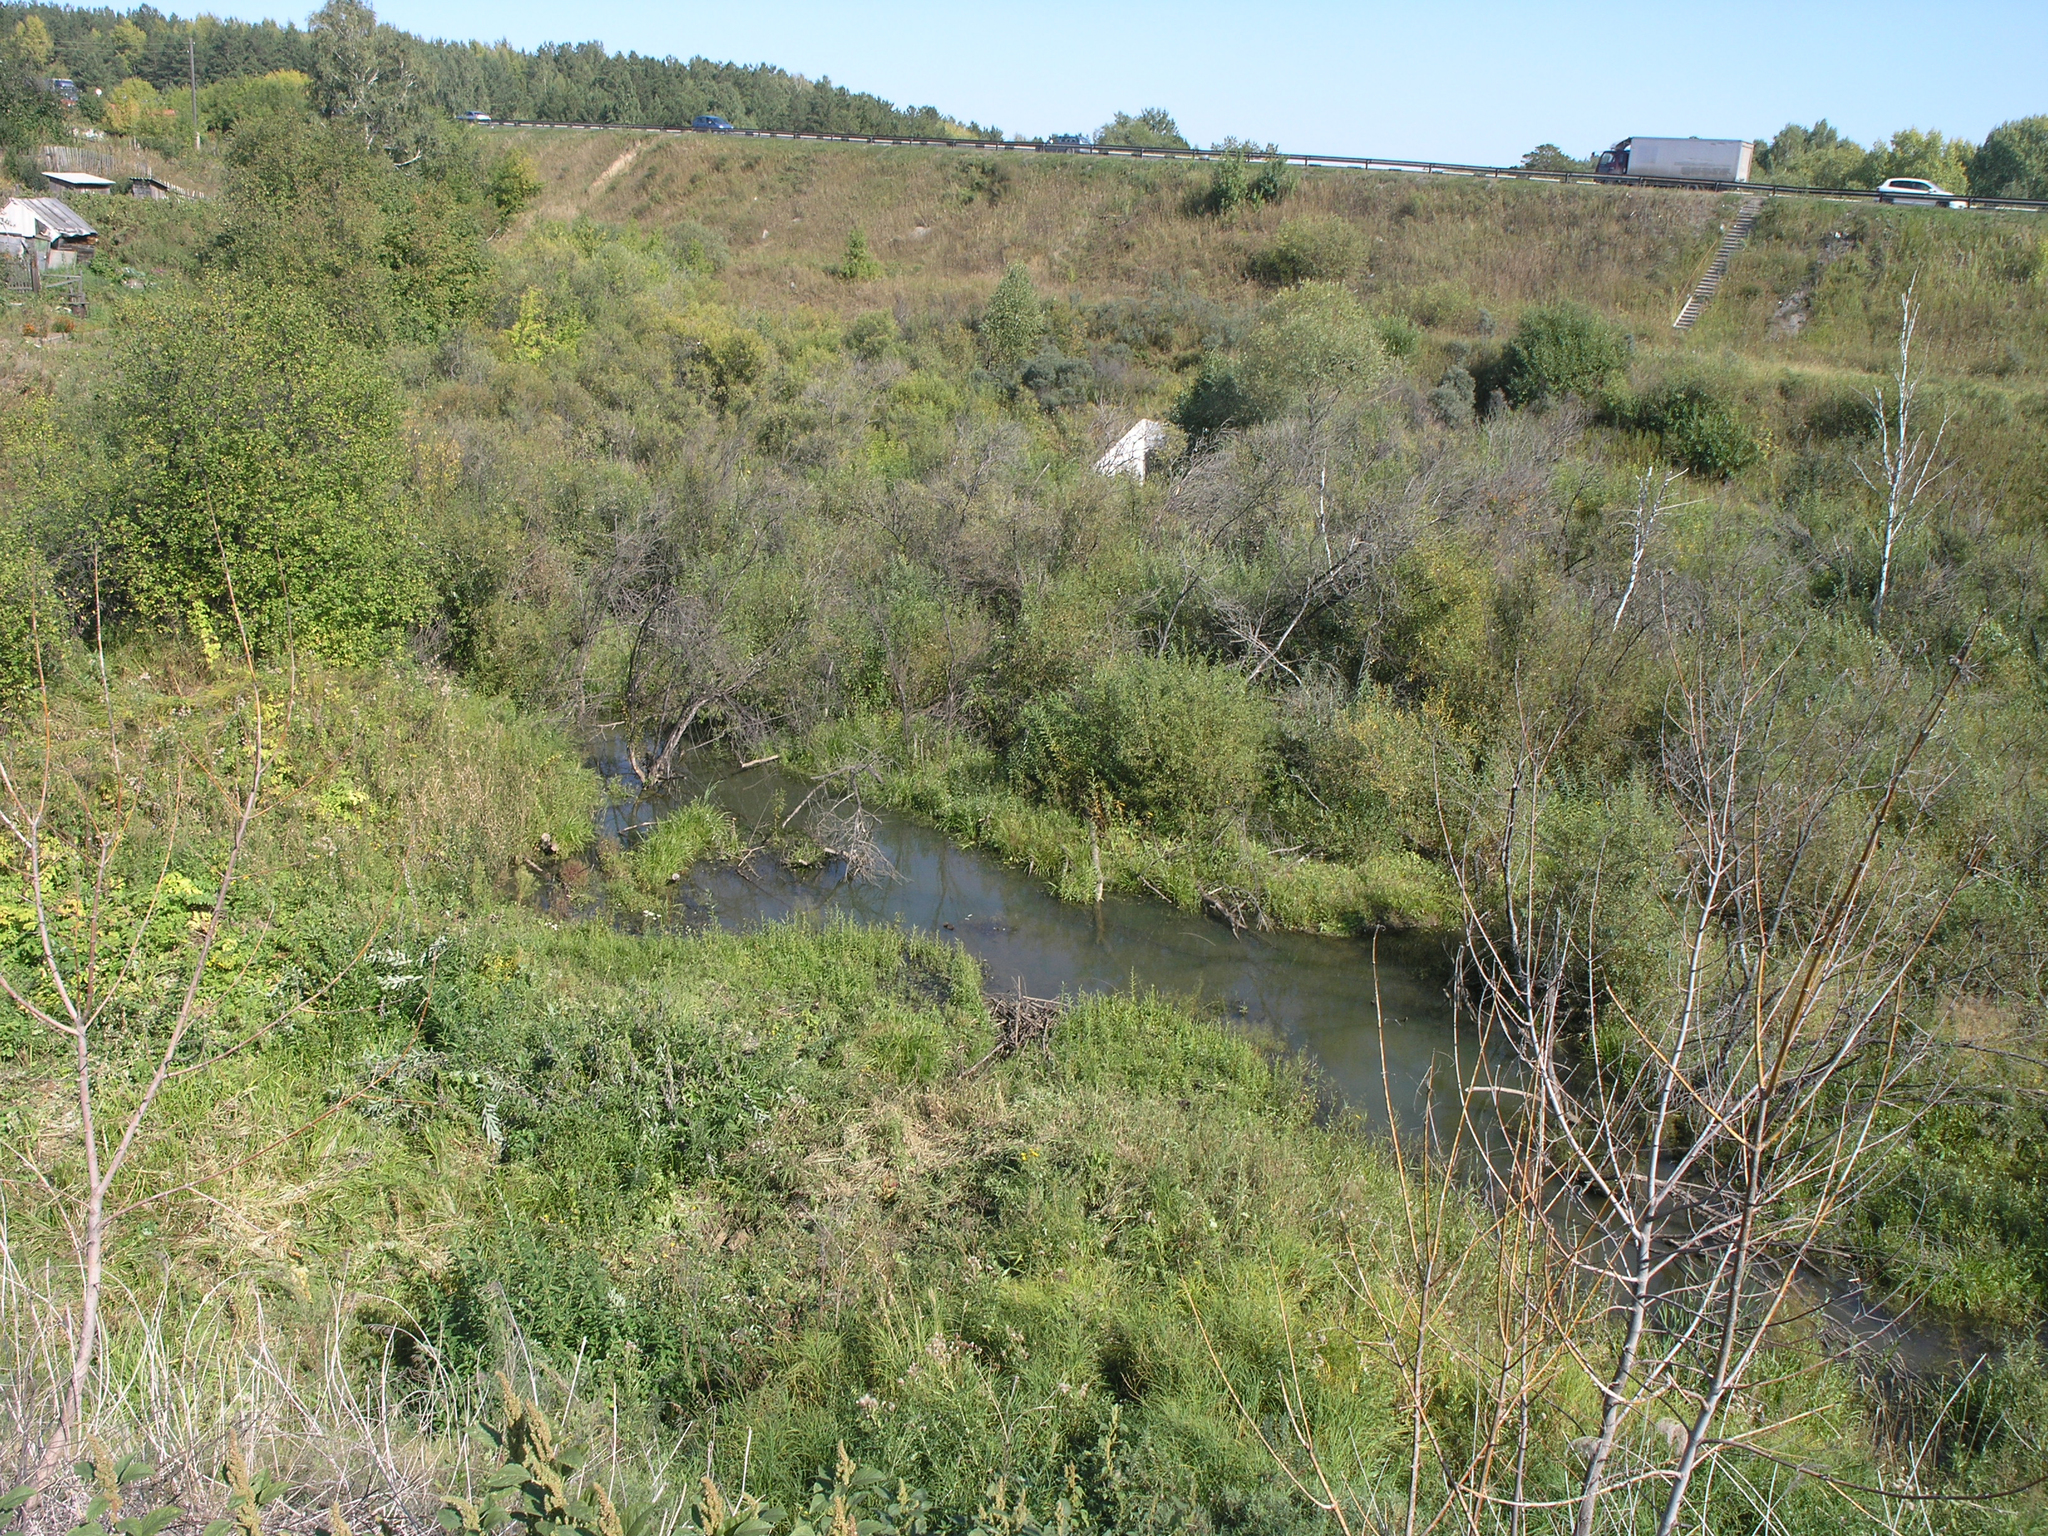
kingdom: Animalia
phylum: Chordata
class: Mammalia
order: Rodentia
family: Castoridae
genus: Castor
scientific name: Castor fiber
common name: Eurasian beaver
